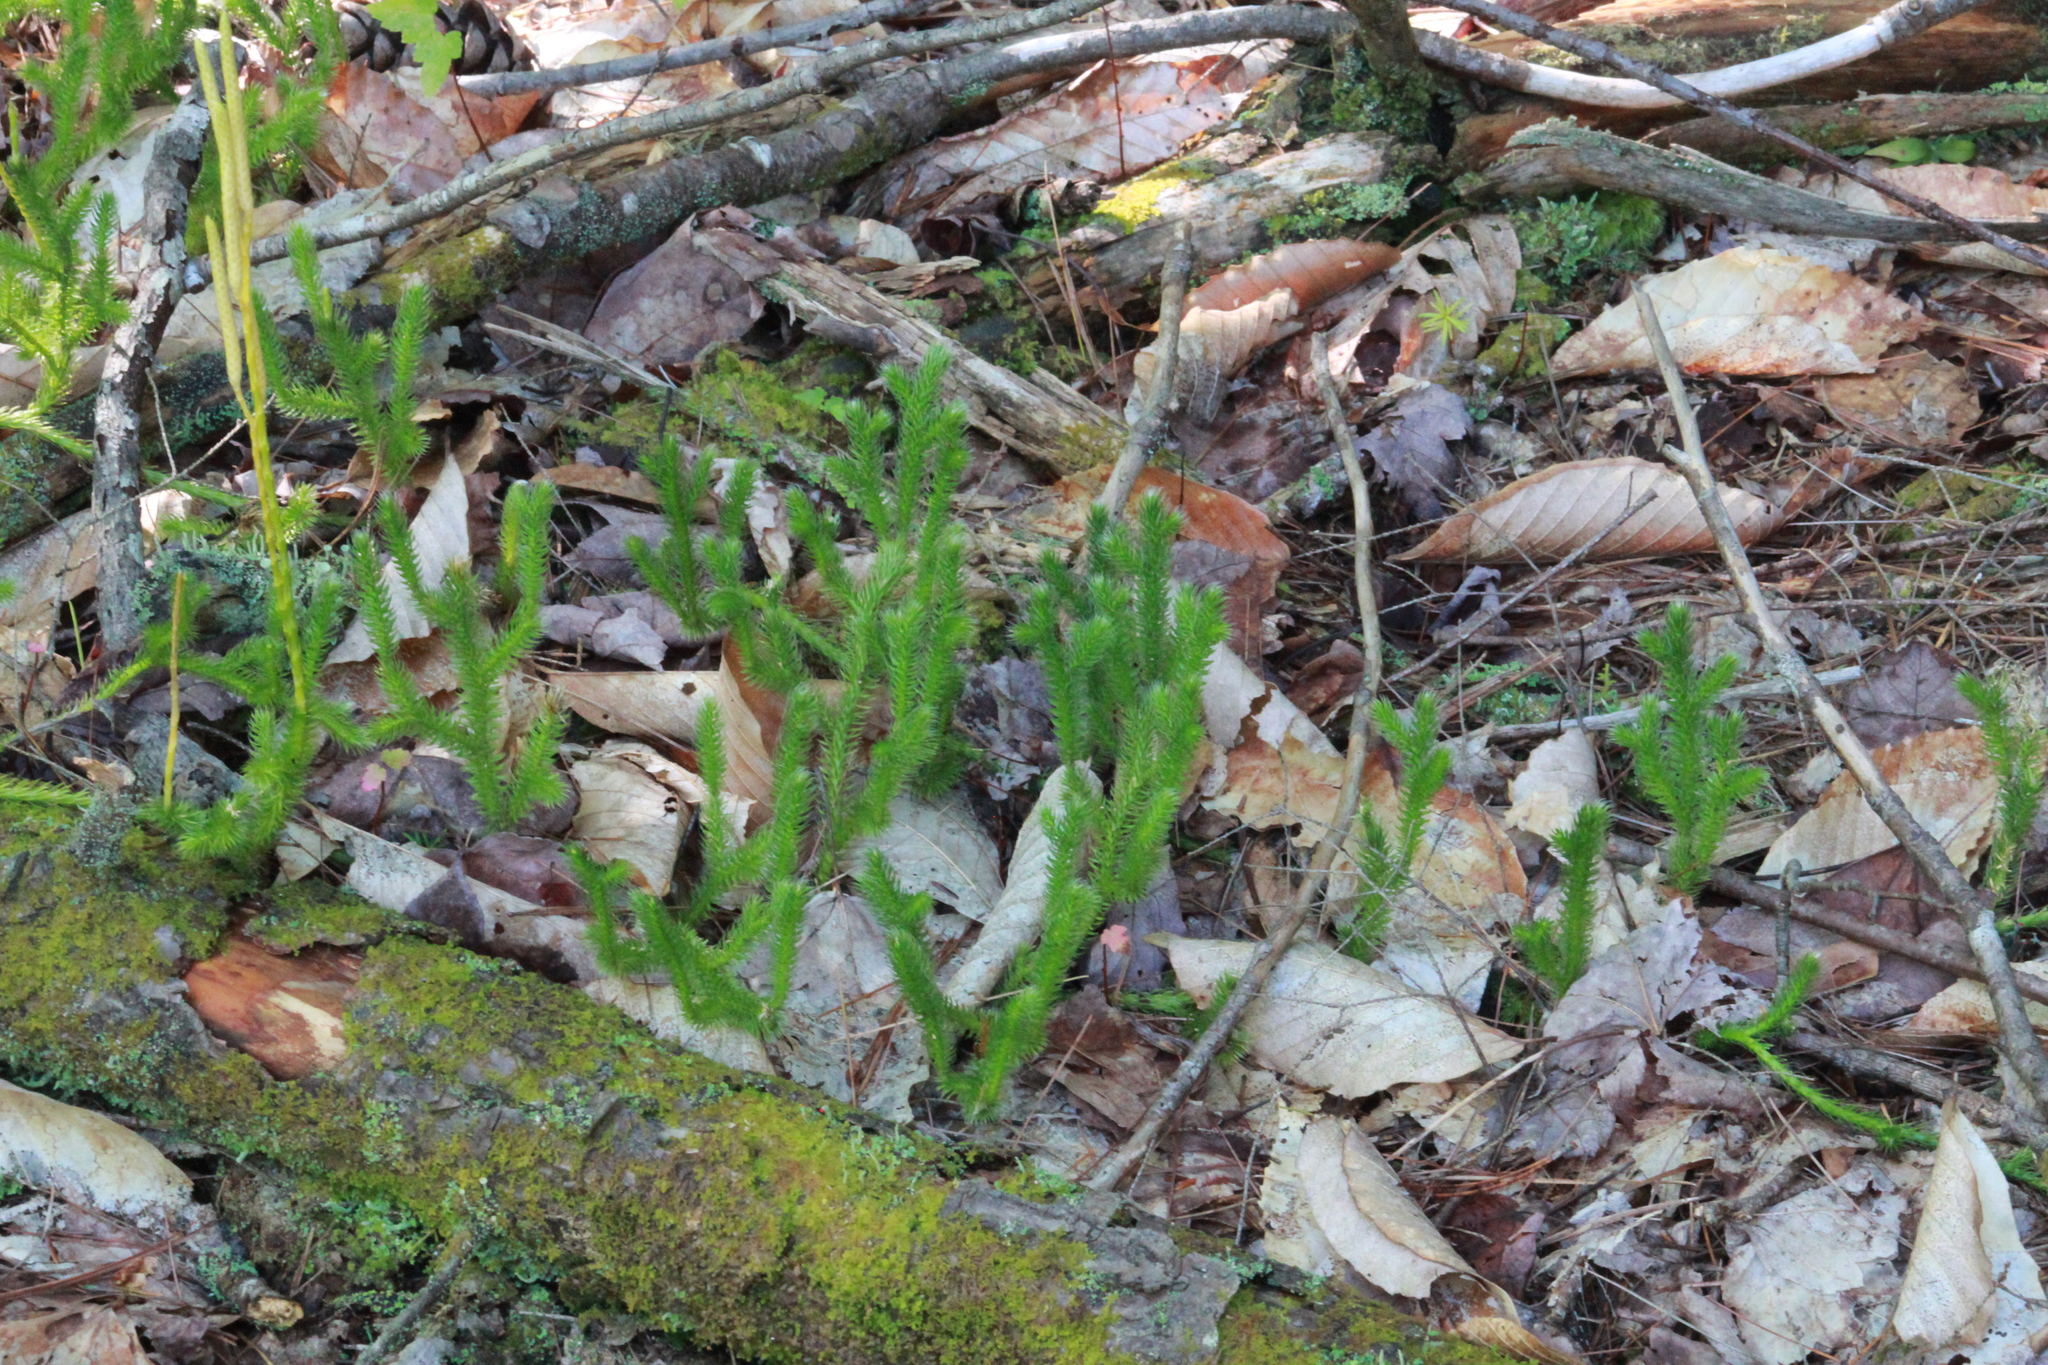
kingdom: Plantae
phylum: Tracheophyta
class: Lycopodiopsida
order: Lycopodiales
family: Lycopodiaceae
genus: Lycopodium
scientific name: Lycopodium clavatum
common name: Stag's-horn clubmoss
